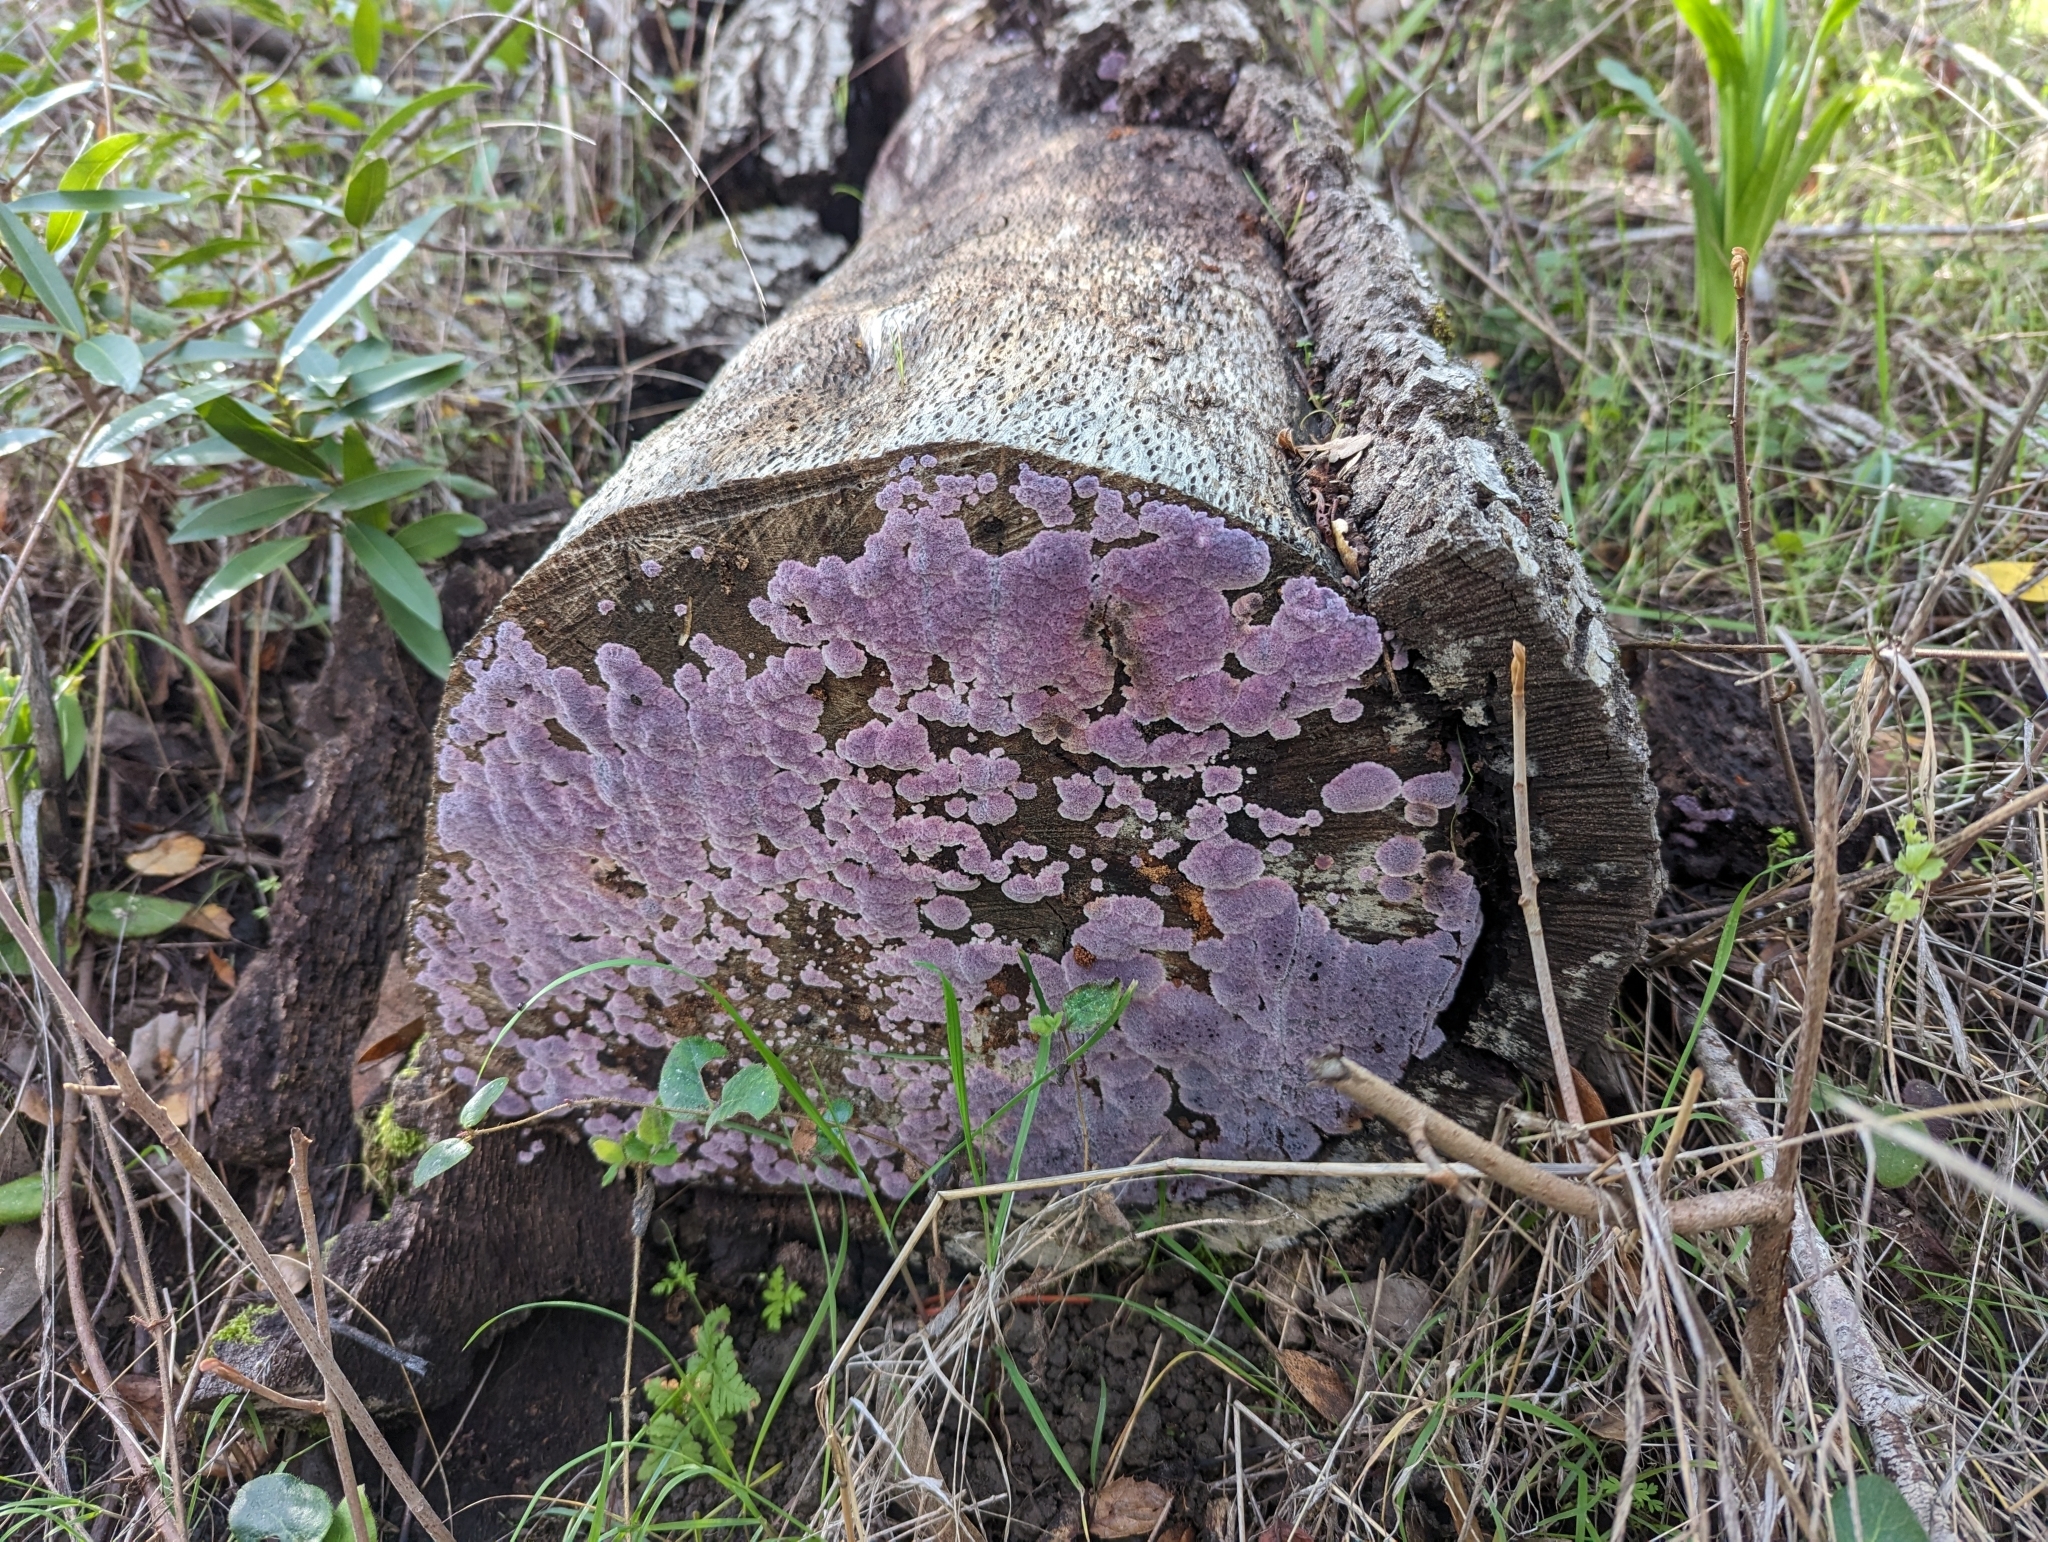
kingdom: Fungi
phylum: Basidiomycota
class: Agaricomycetes
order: Corticiales
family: Punctulariaceae
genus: Punctularia
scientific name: Punctularia atropurpurascens
